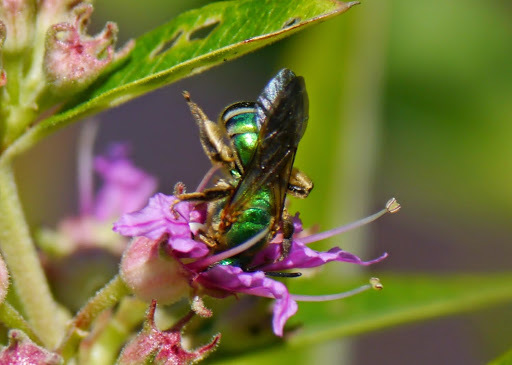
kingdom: Animalia
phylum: Arthropoda
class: Insecta
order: Hymenoptera
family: Halictidae
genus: Agapostemon
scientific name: Agapostemon splendens
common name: Brown-winged striped sweat bee
